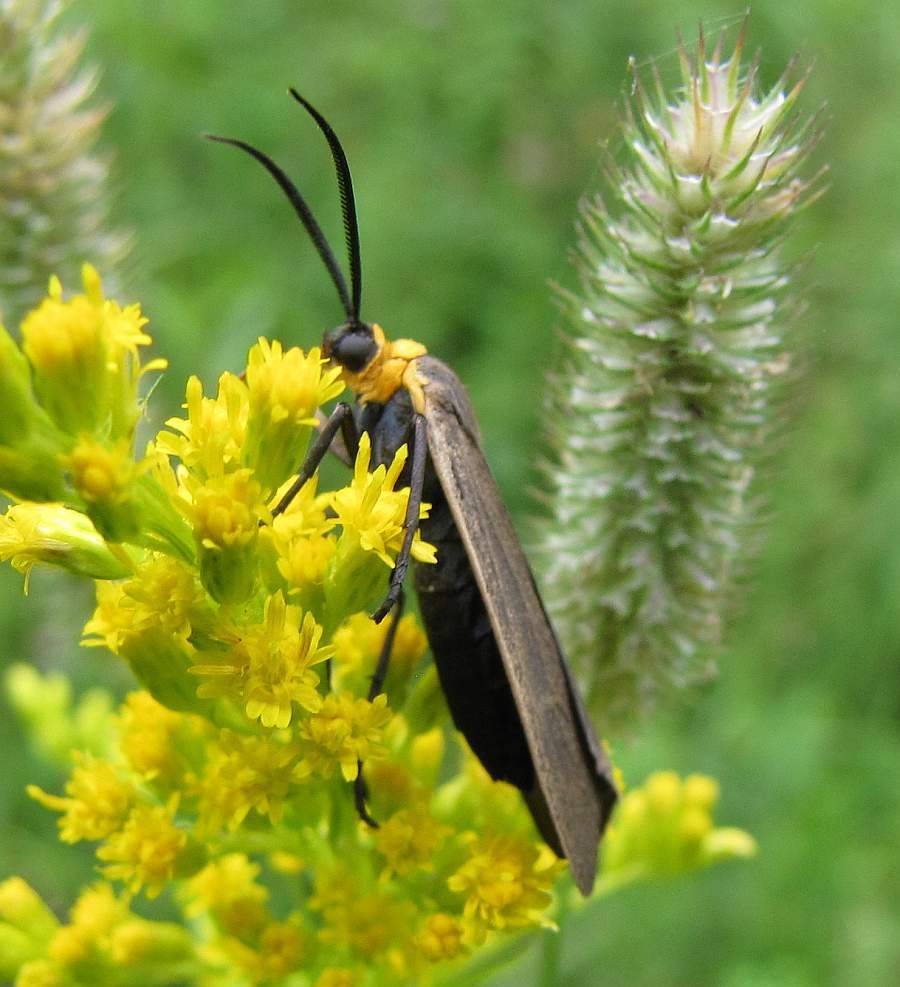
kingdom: Animalia
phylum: Arthropoda
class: Insecta
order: Lepidoptera
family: Erebidae
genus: Cisseps
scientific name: Cisseps fulvicollis
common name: Yellow-collared scape moth
